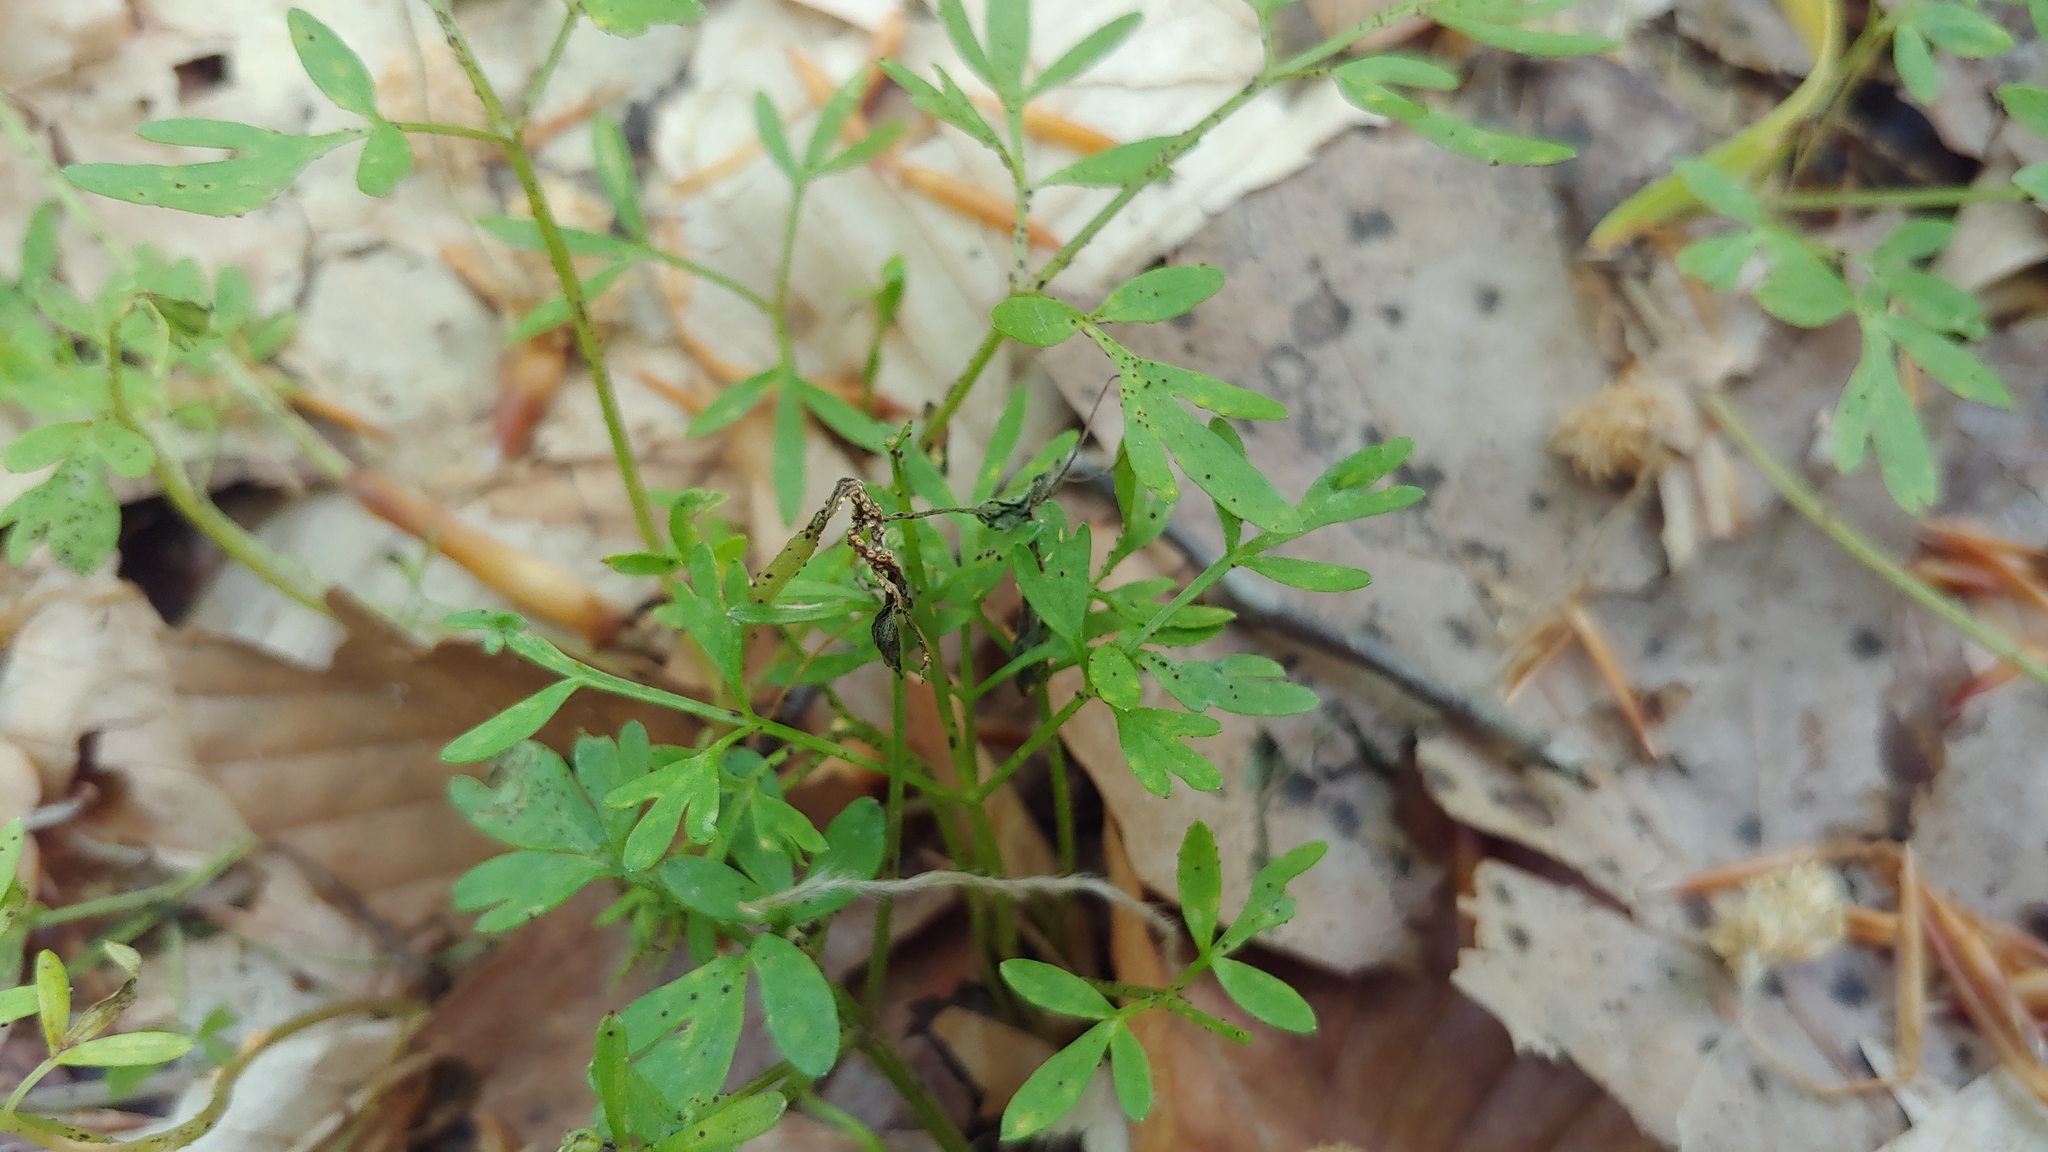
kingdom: Fungi
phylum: Basidiomycota
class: Pucciniomycetes
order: Pucciniales
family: Pucciniaceae
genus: Puccinia
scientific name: Puccinia erigeniae
